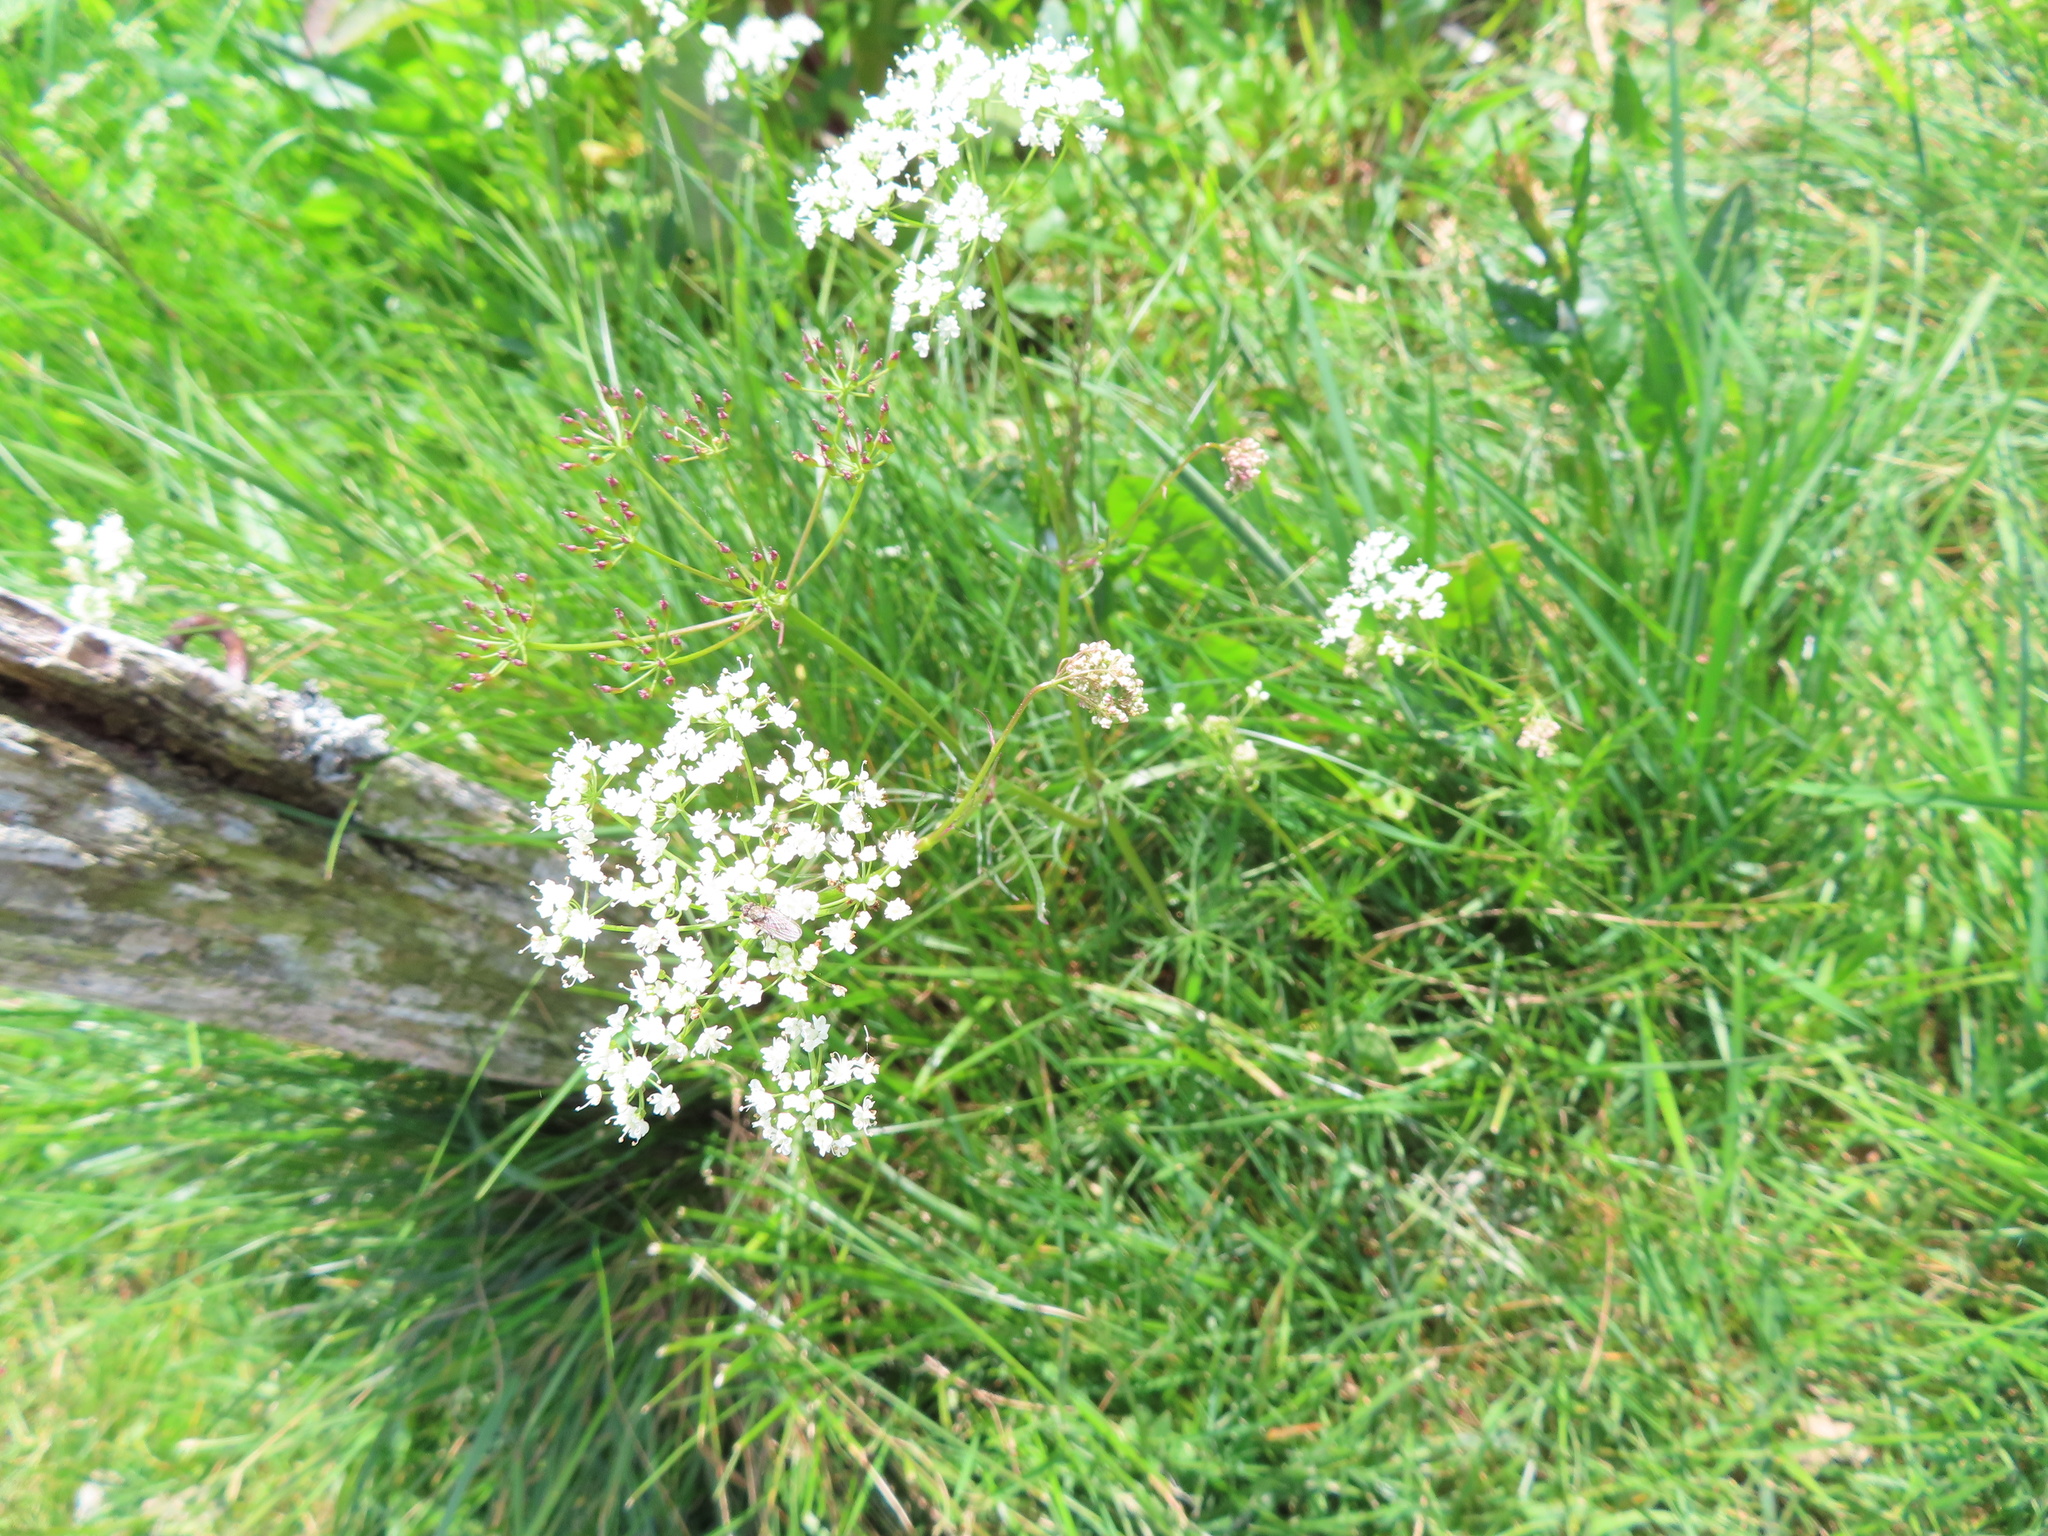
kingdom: Plantae
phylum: Tracheophyta
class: Magnoliopsida
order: Apiales
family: Apiaceae
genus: Conopodium
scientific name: Conopodium majus
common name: Pignut
